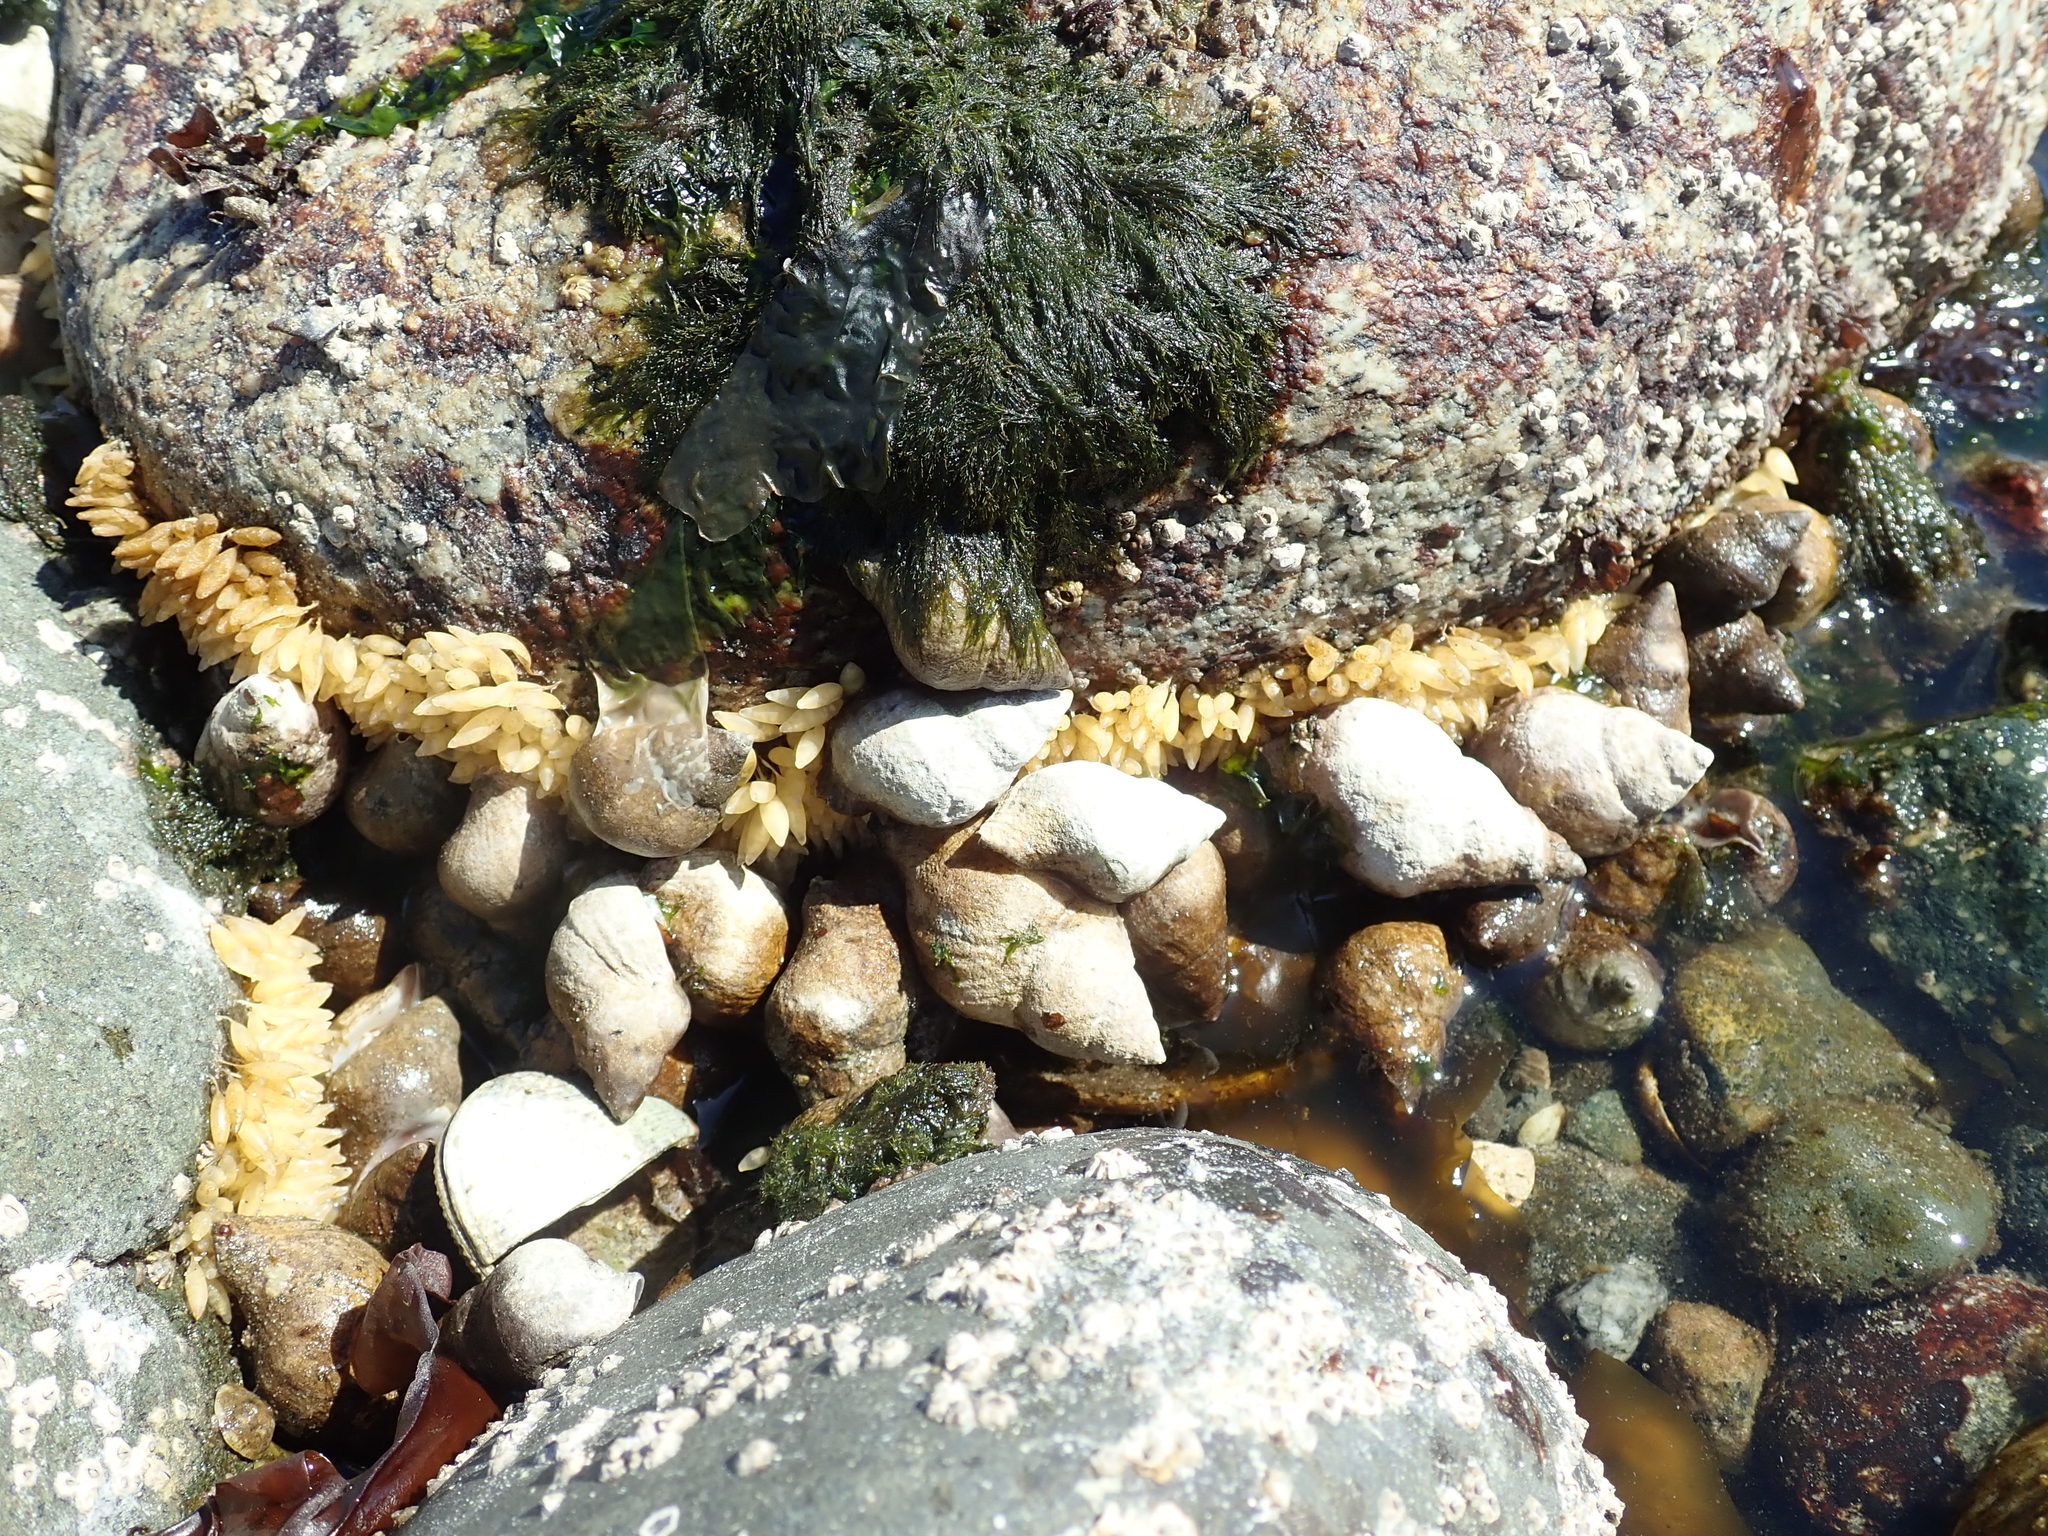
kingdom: Animalia
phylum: Mollusca
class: Gastropoda
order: Neogastropoda
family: Muricidae
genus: Nucella
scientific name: Nucella lamellosa
